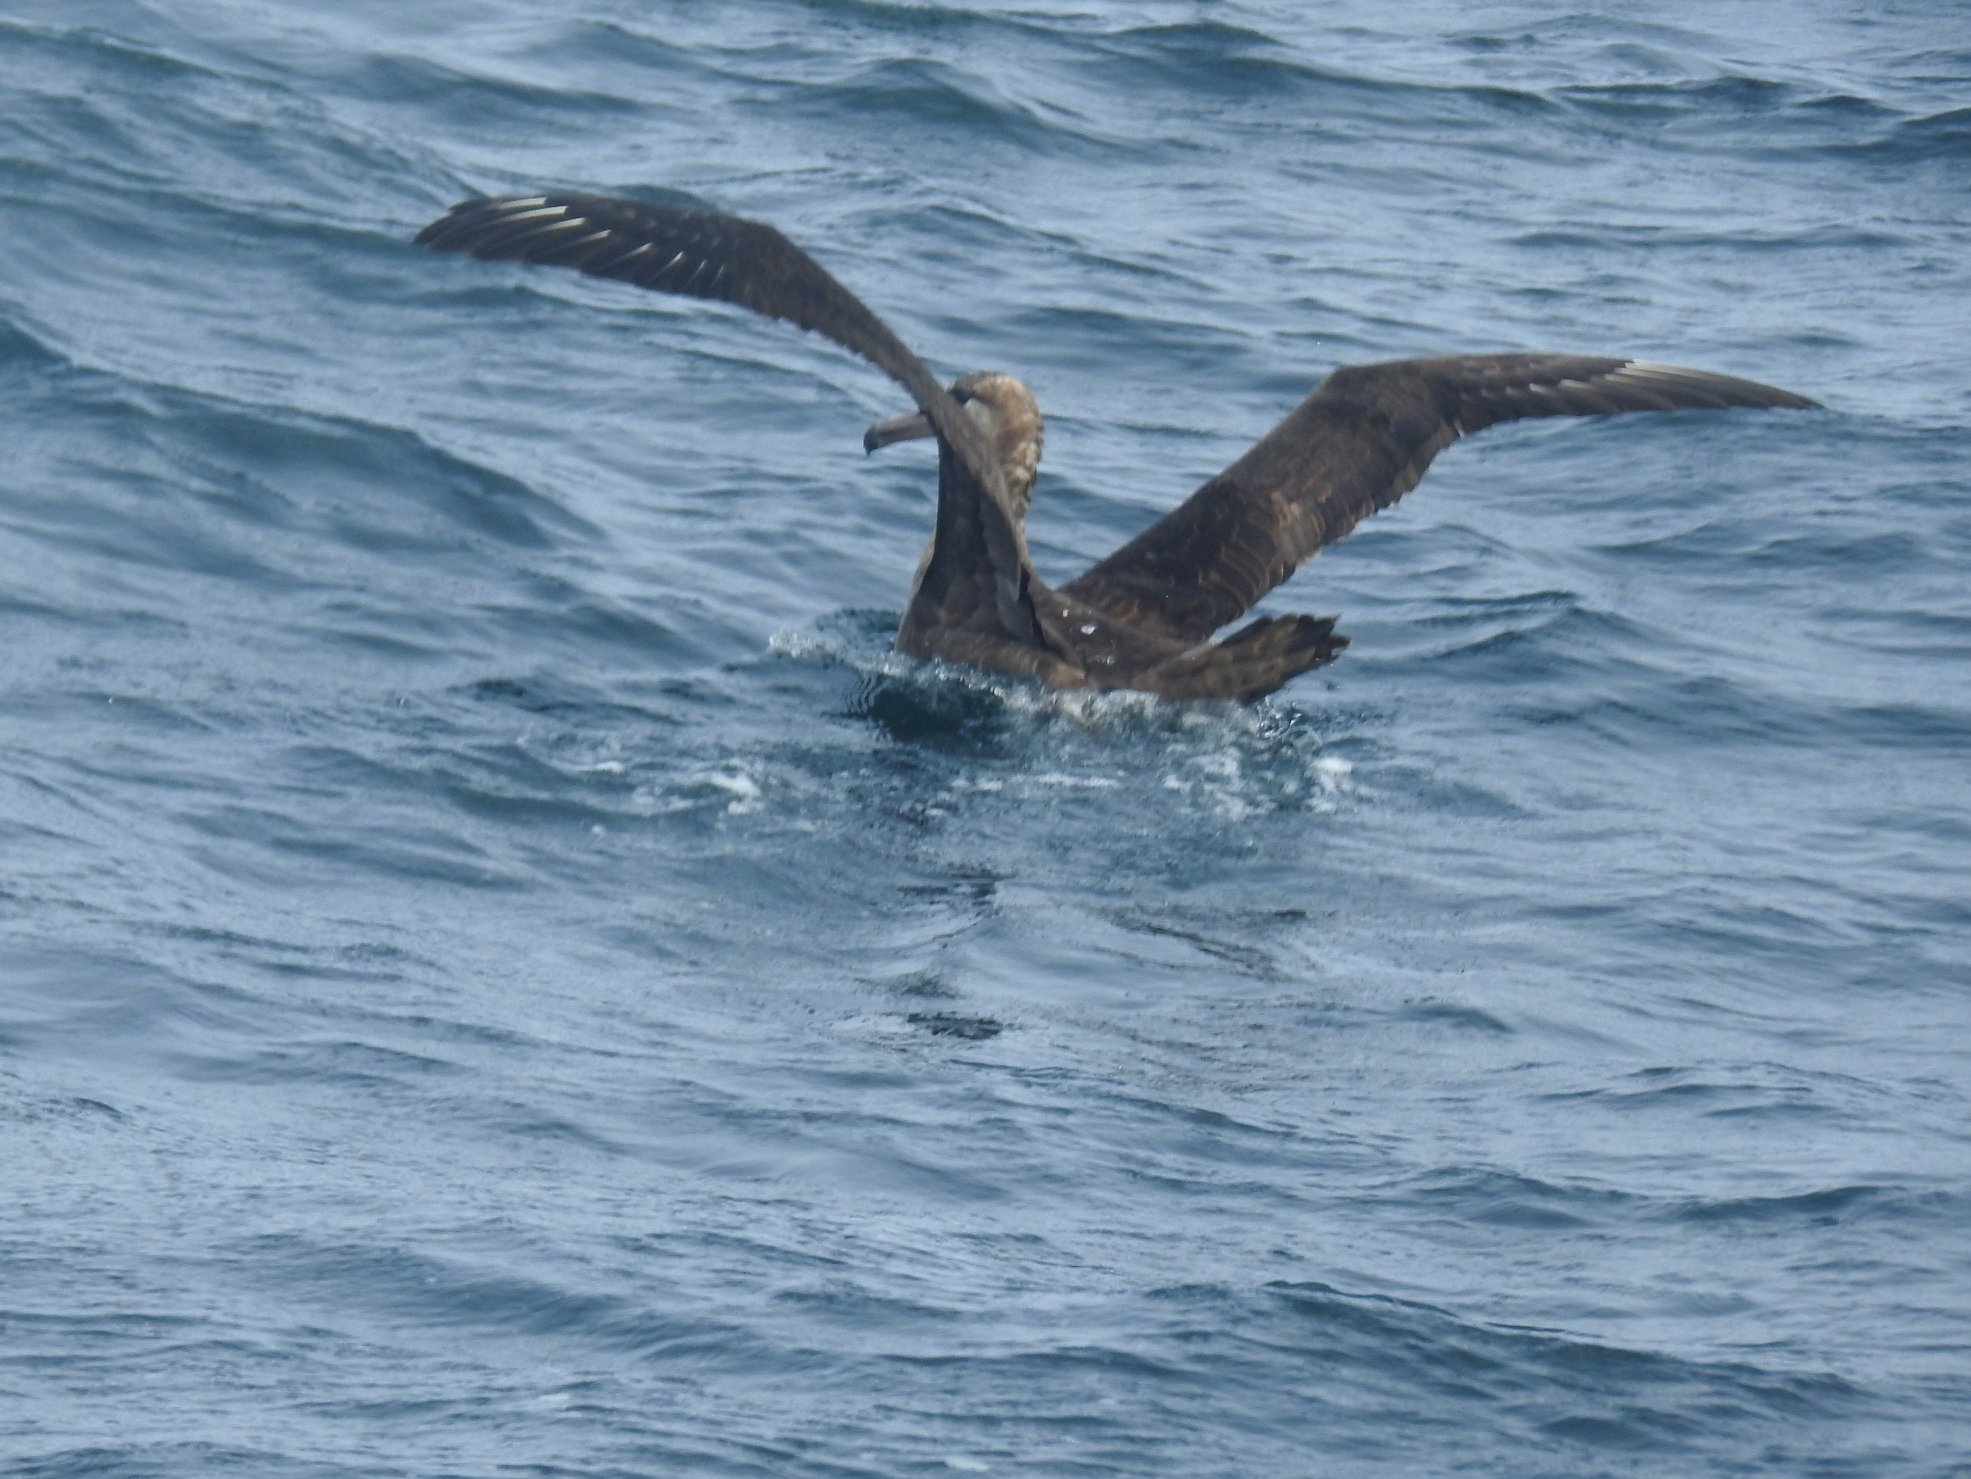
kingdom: Animalia
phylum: Chordata
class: Aves
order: Procellariiformes
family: Diomedeidae
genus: Phoebastria
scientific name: Phoebastria nigripes
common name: Black-footed albatross
